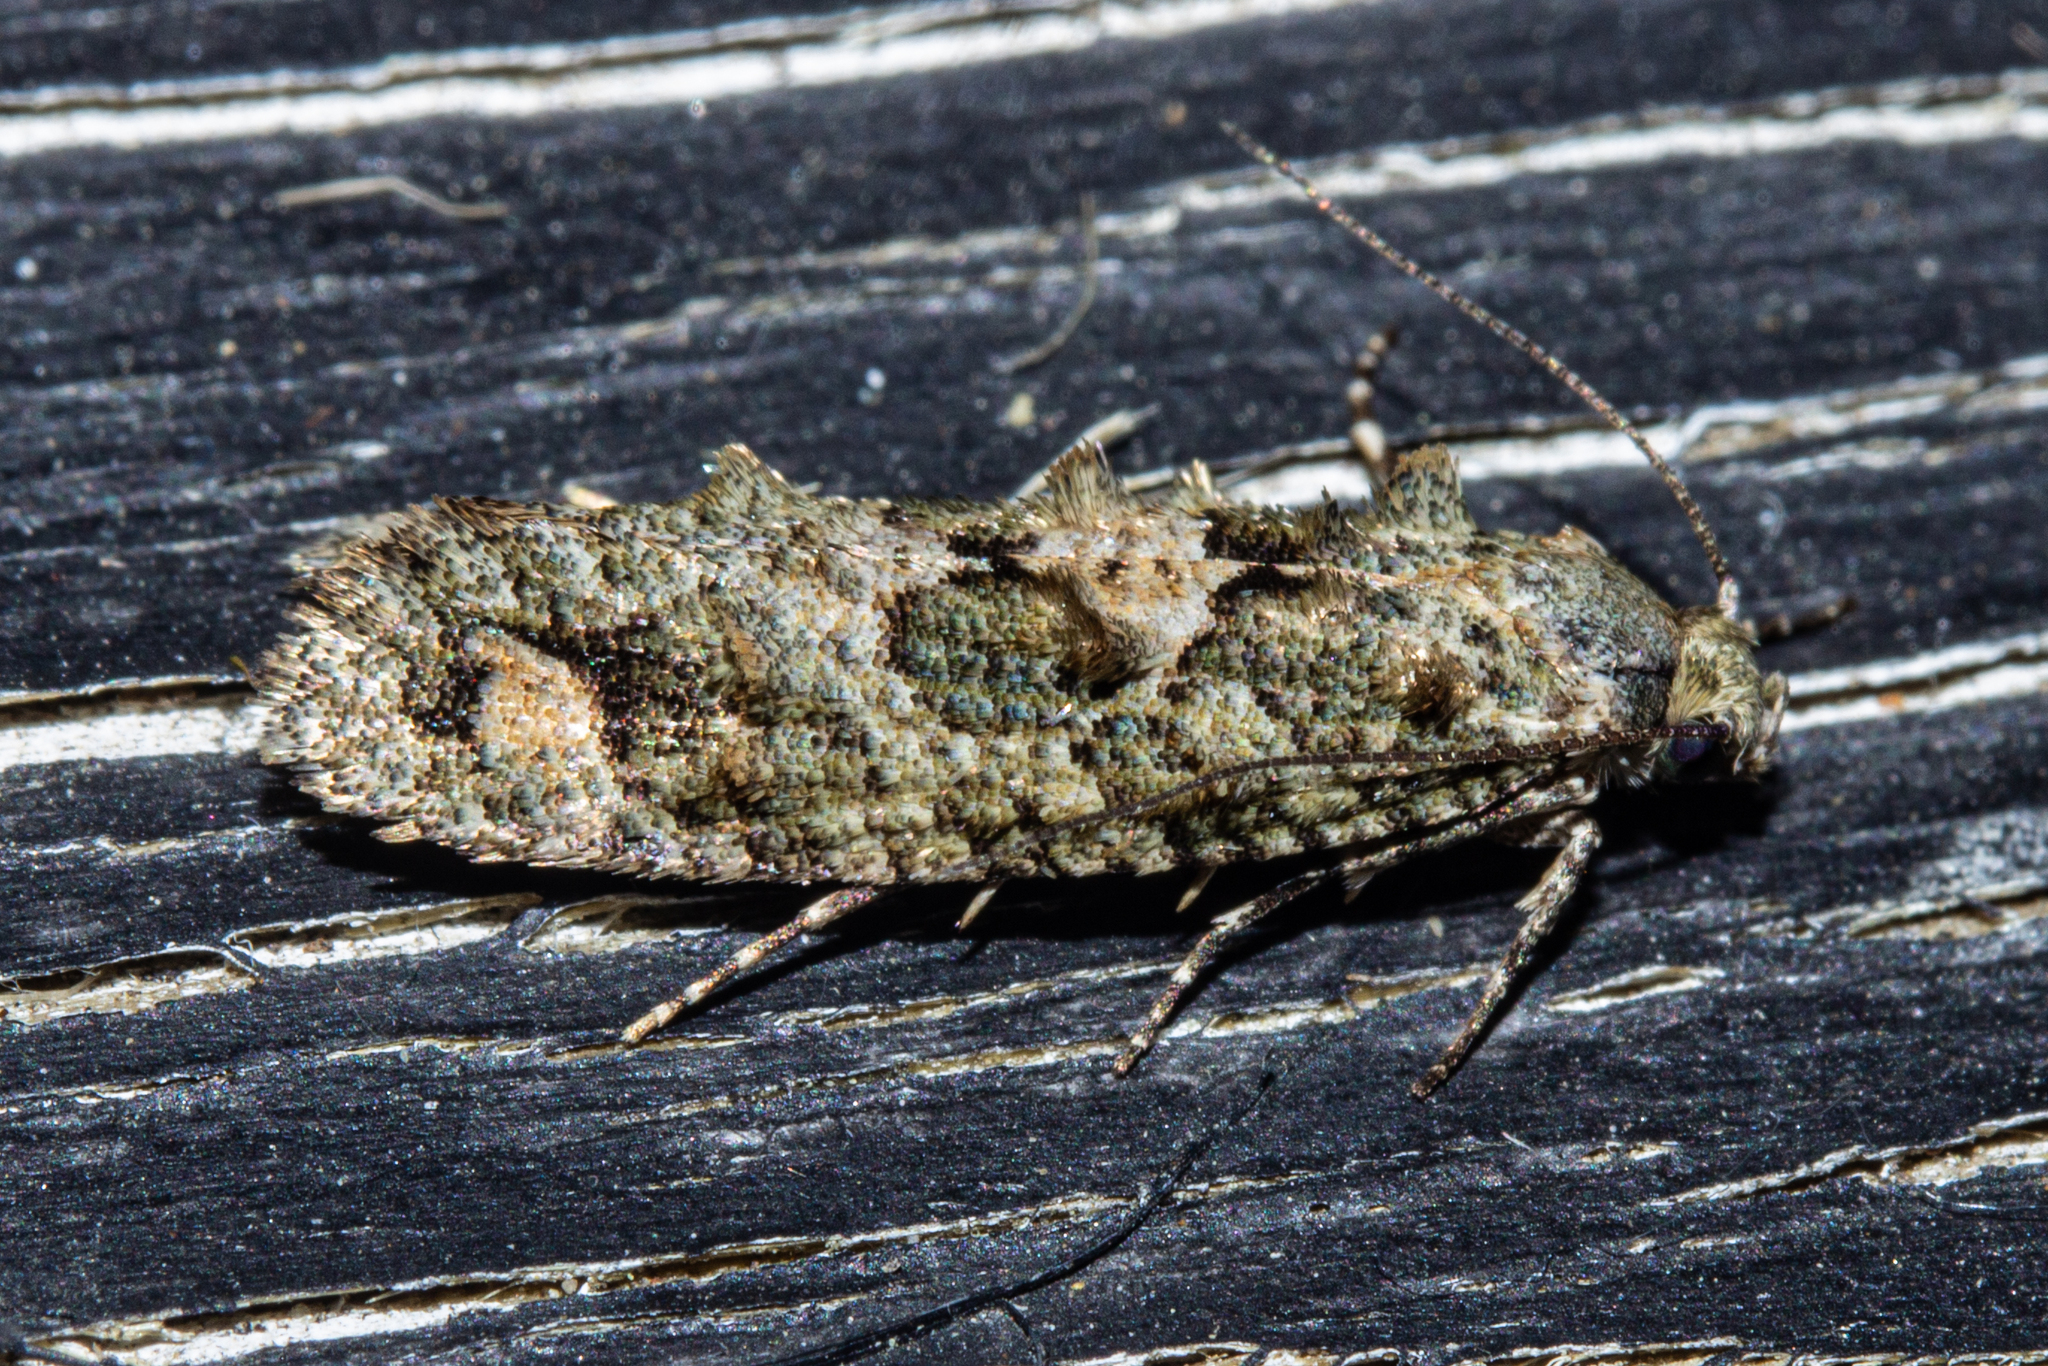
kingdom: Animalia
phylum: Arthropoda
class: Insecta
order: Lepidoptera
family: Tineidae
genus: Lysiphragma
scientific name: Lysiphragma howesii
